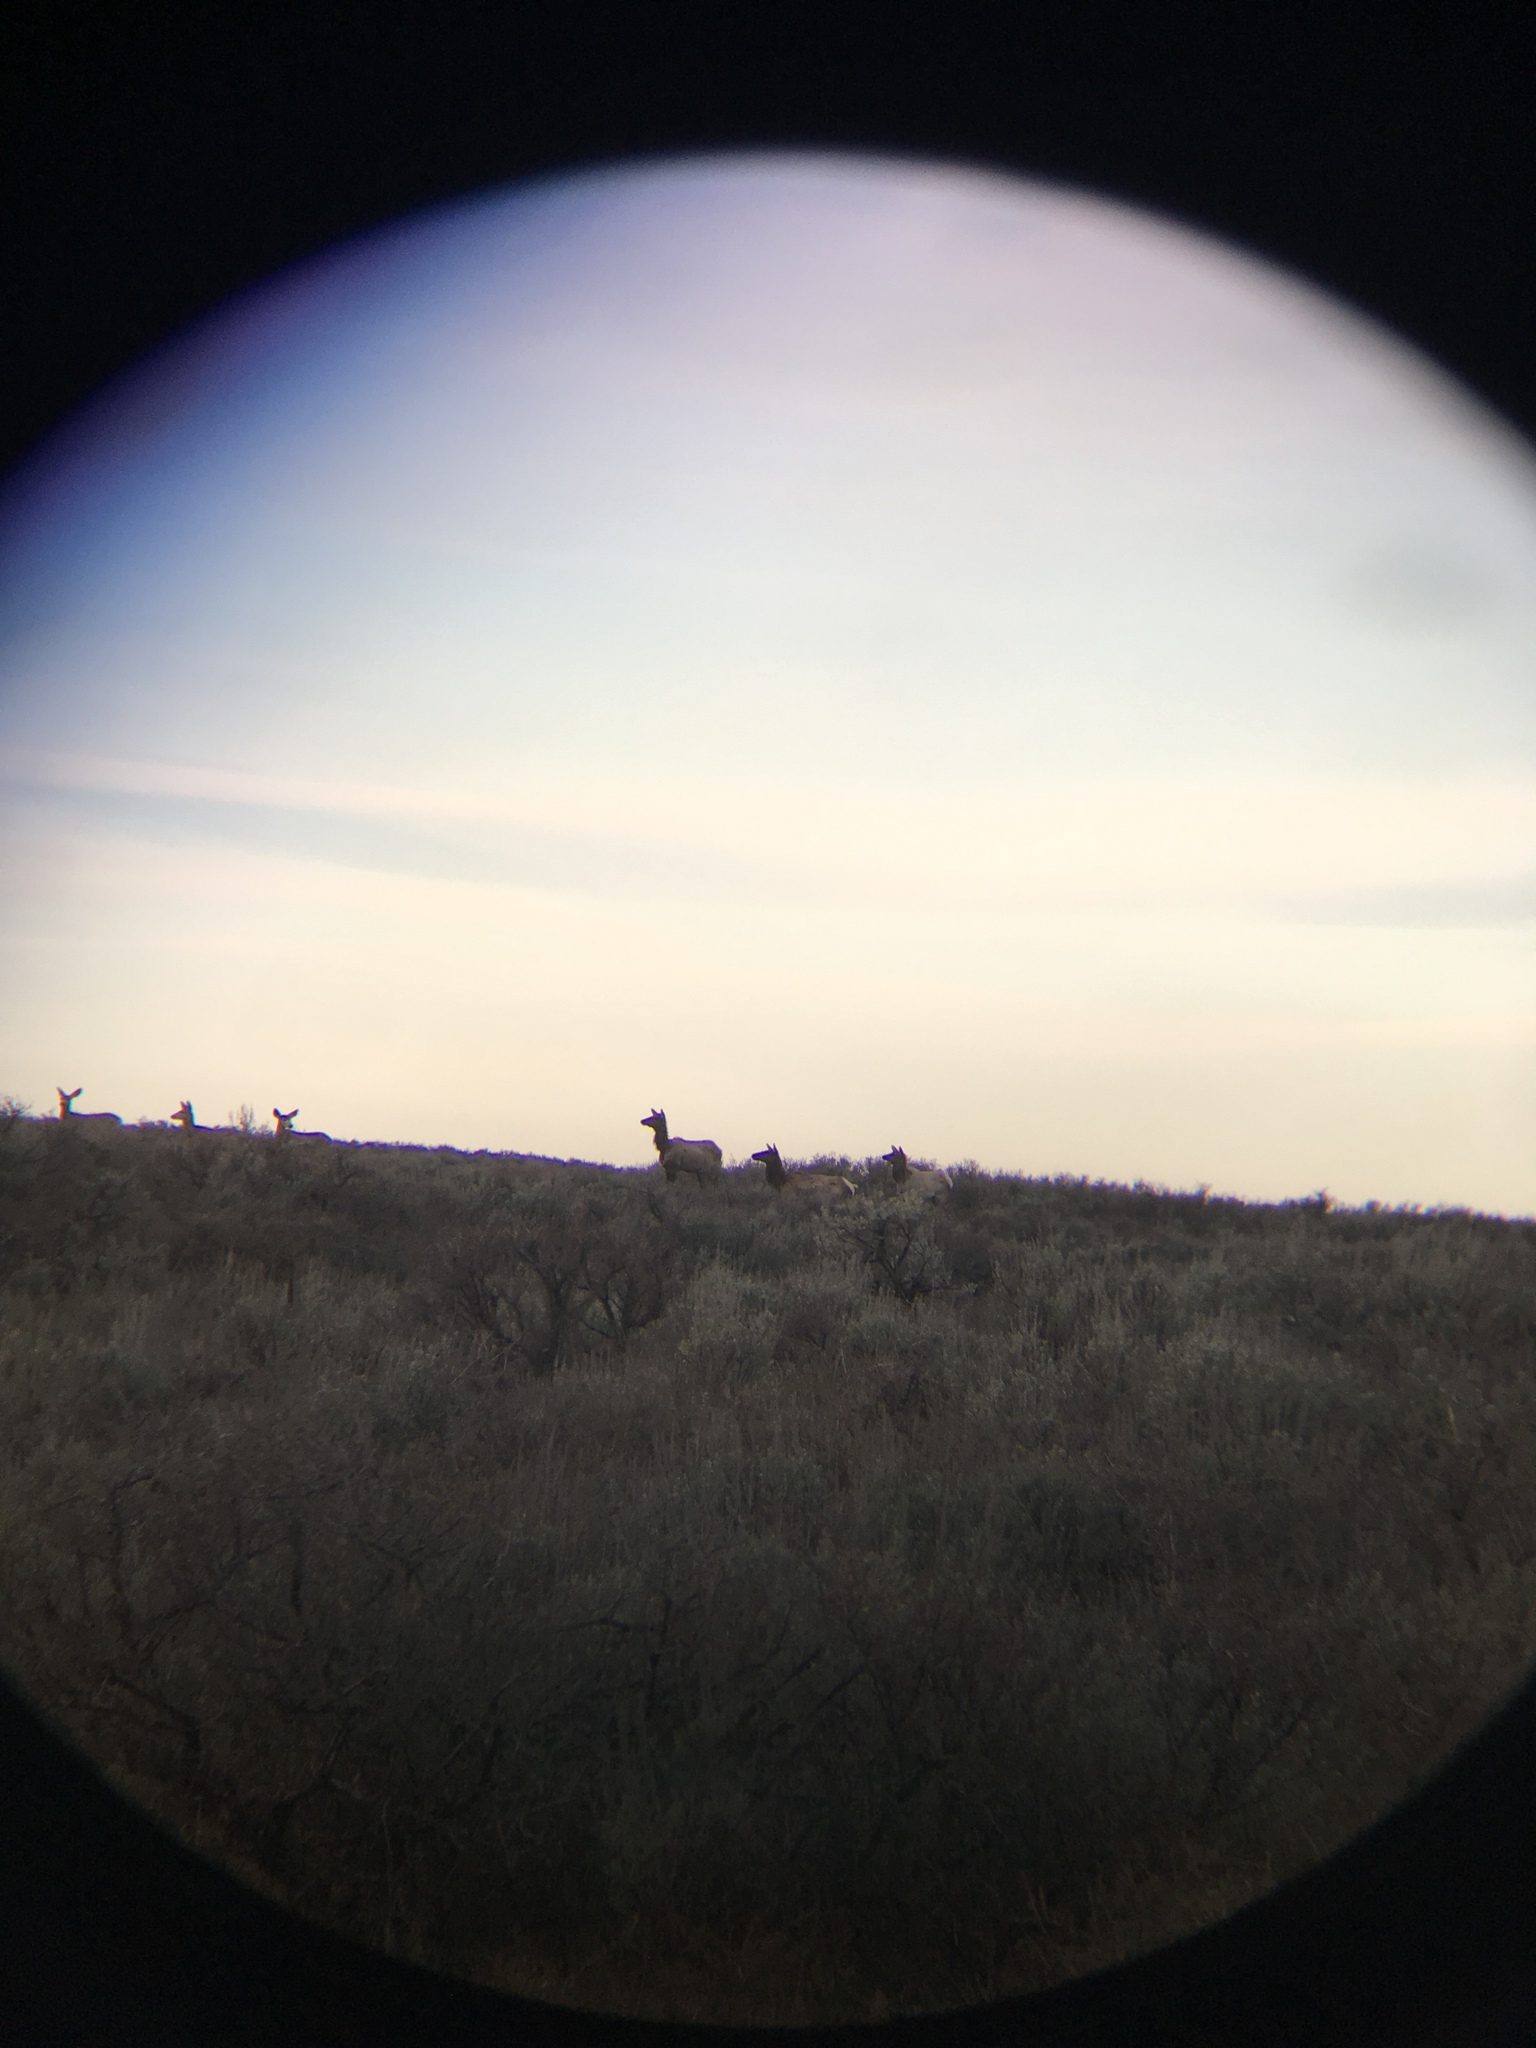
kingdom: Animalia
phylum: Chordata
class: Mammalia
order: Artiodactyla
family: Cervidae
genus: Cervus
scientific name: Cervus elaphus
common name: Red deer
